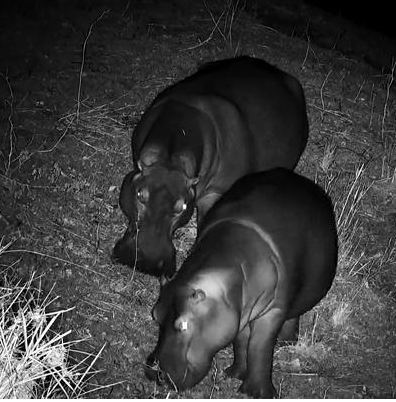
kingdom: Animalia
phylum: Chordata
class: Mammalia
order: Artiodactyla
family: Hippopotamidae
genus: Hippopotamus
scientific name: Hippopotamus amphibius
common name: Common hippopotamus
